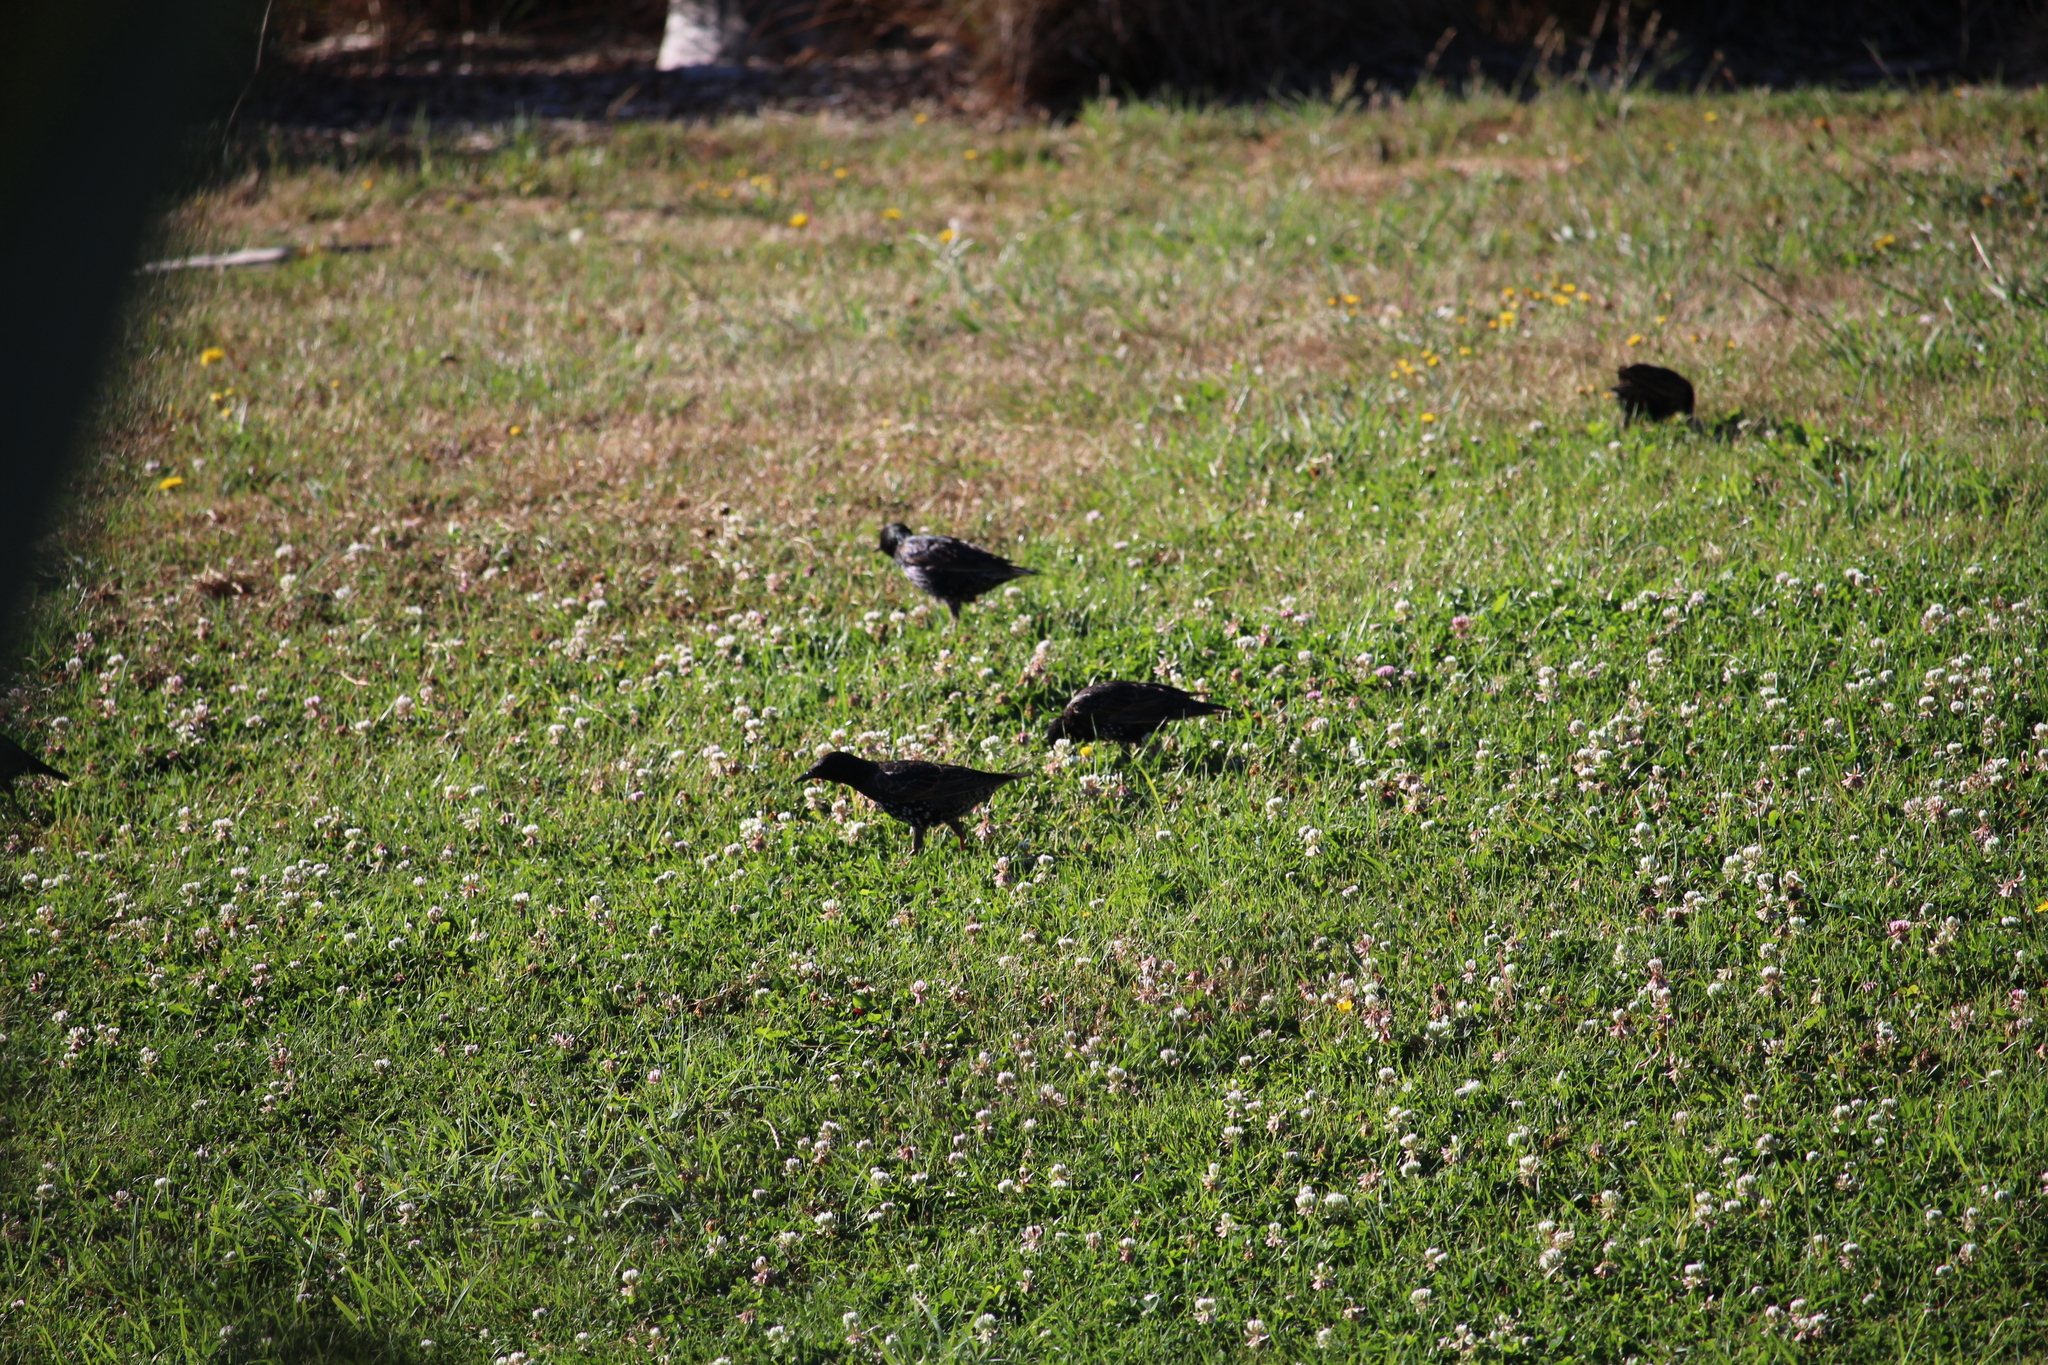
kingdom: Animalia
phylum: Chordata
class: Aves
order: Passeriformes
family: Sturnidae
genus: Sturnus
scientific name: Sturnus vulgaris
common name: Common starling
